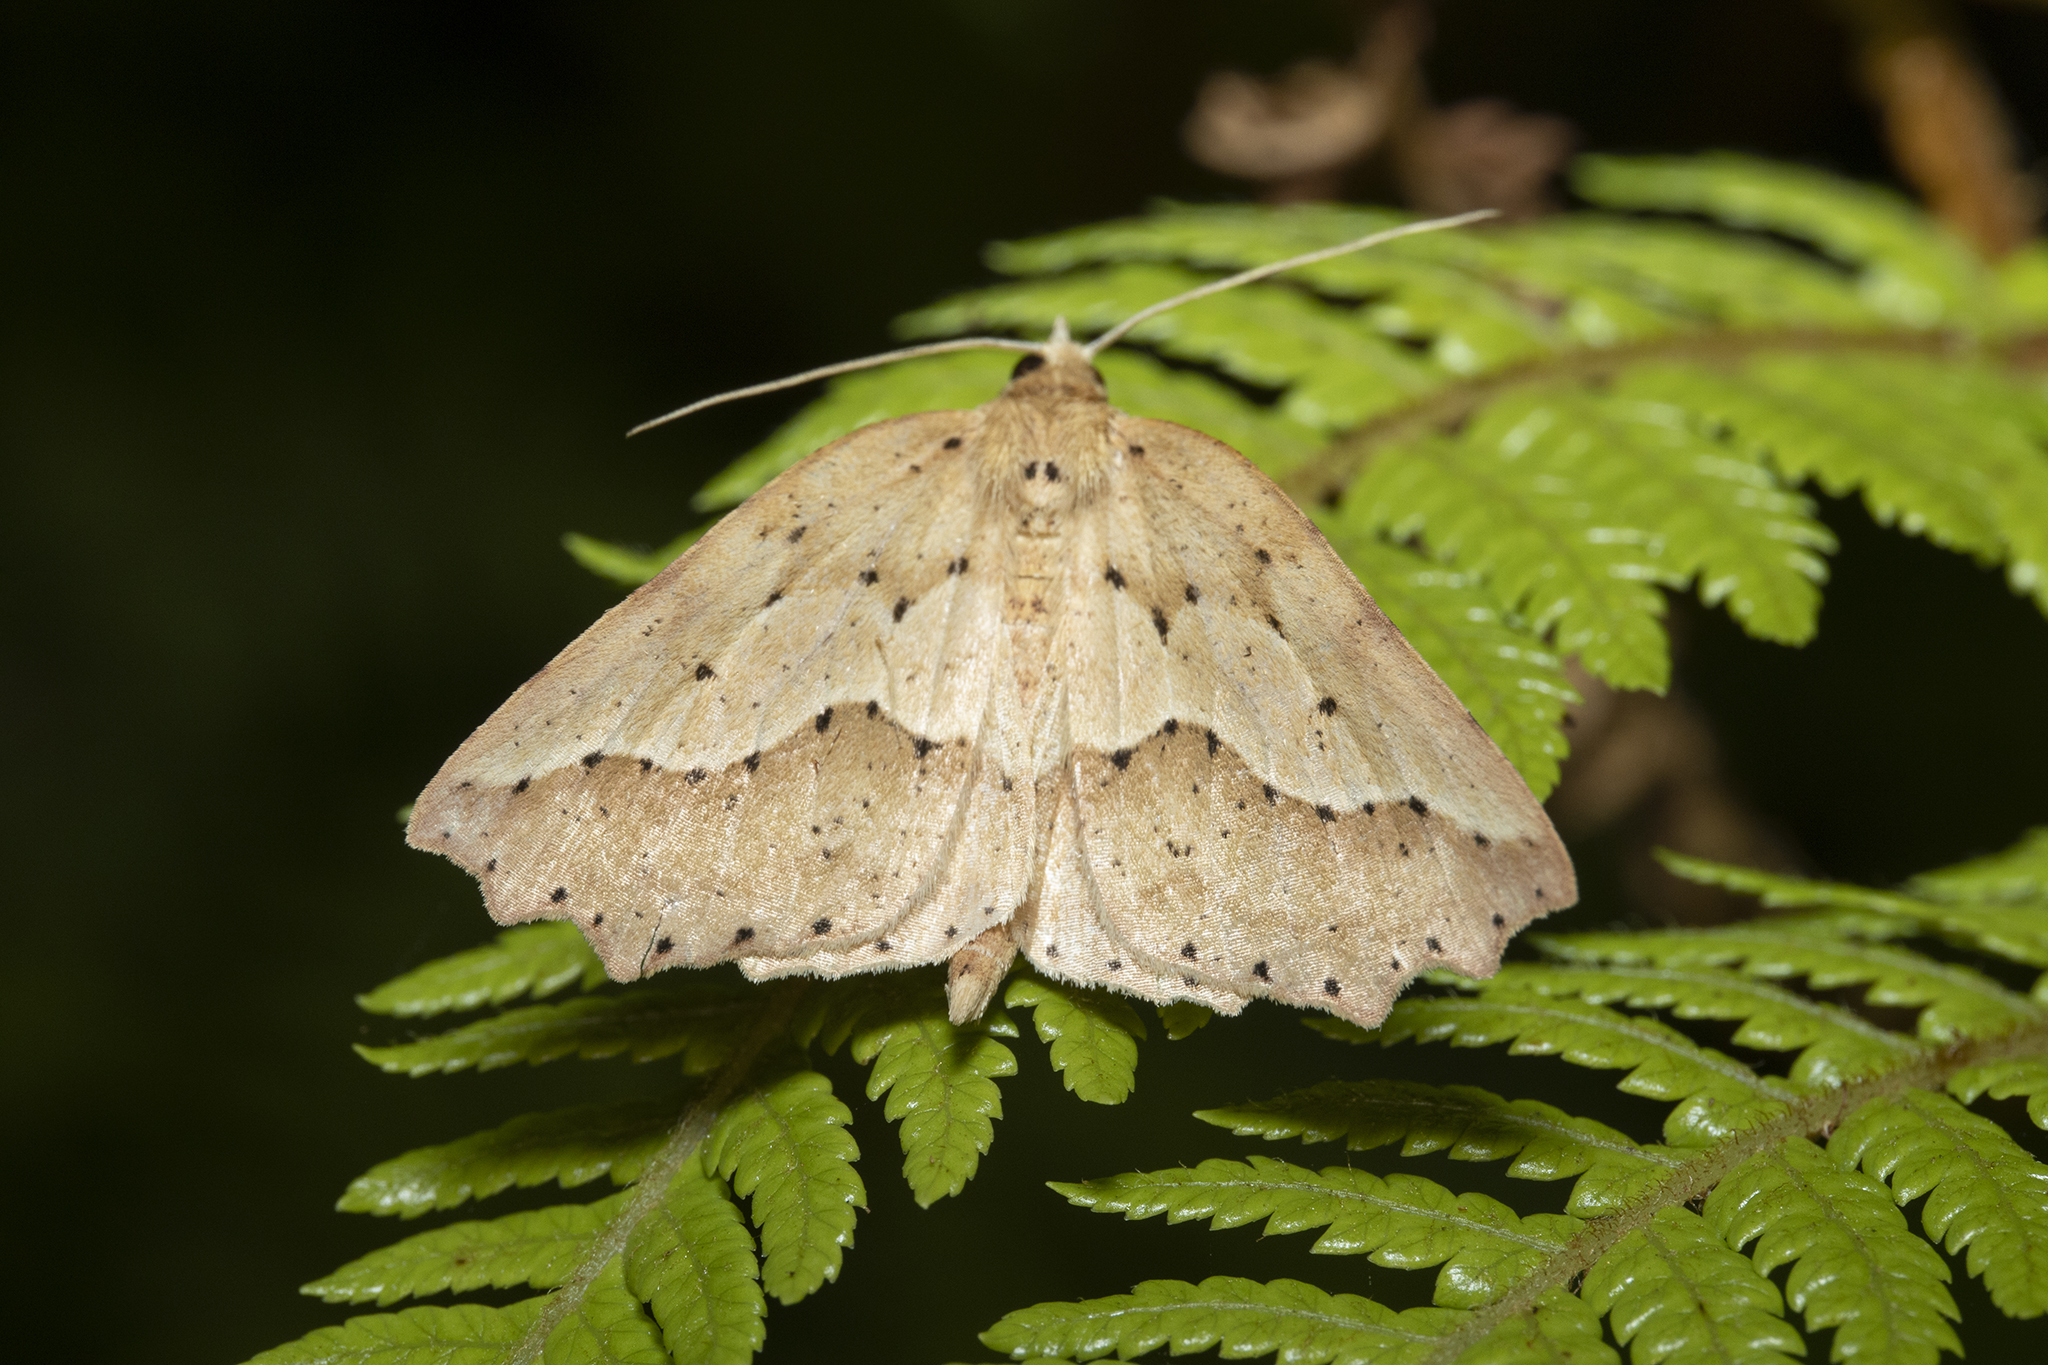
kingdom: Animalia
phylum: Arthropoda
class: Insecta
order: Lepidoptera
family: Geometridae
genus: Ischalis
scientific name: Ischalis variabilis
